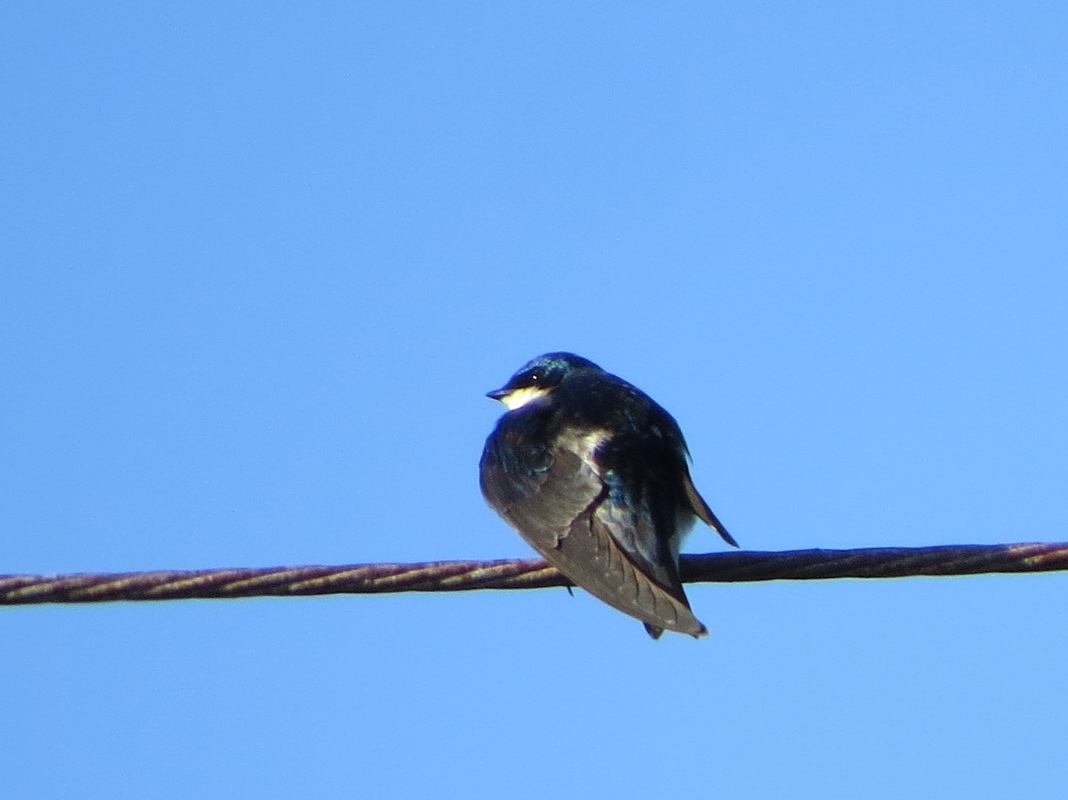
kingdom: Animalia
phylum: Chordata
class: Aves
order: Passeriformes
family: Hirundinidae
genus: Tachycineta
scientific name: Tachycineta bicolor
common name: Tree swallow
